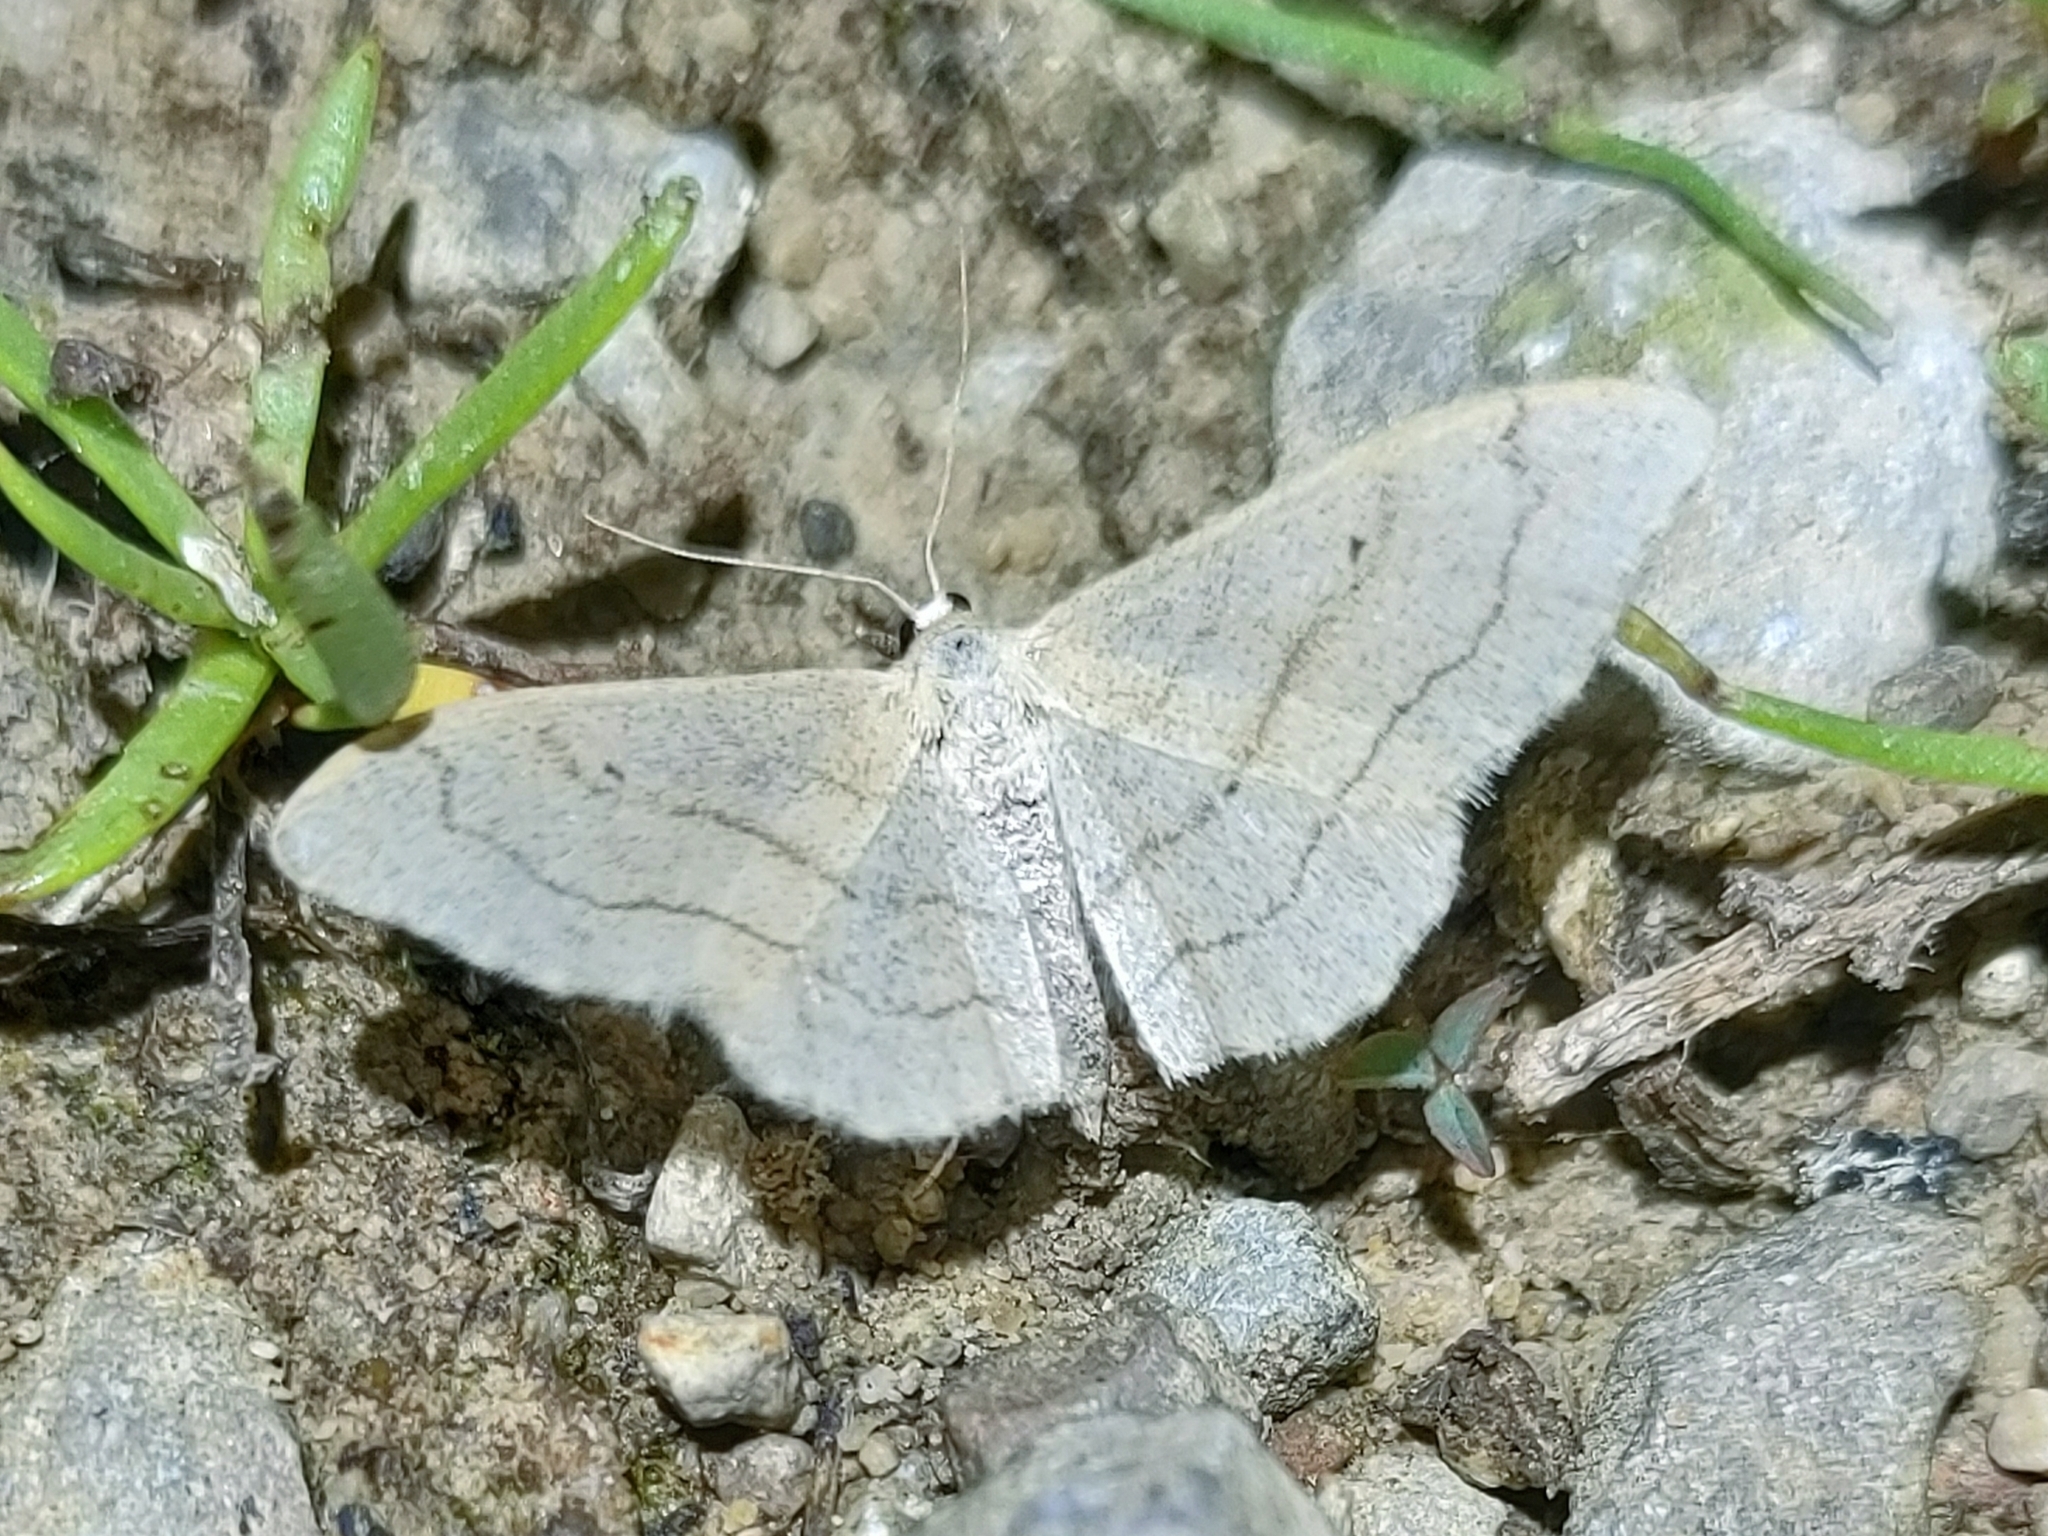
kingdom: Animalia
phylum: Arthropoda
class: Insecta
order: Lepidoptera
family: Geometridae
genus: Idaea
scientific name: Idaea aversata
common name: Riband wave
